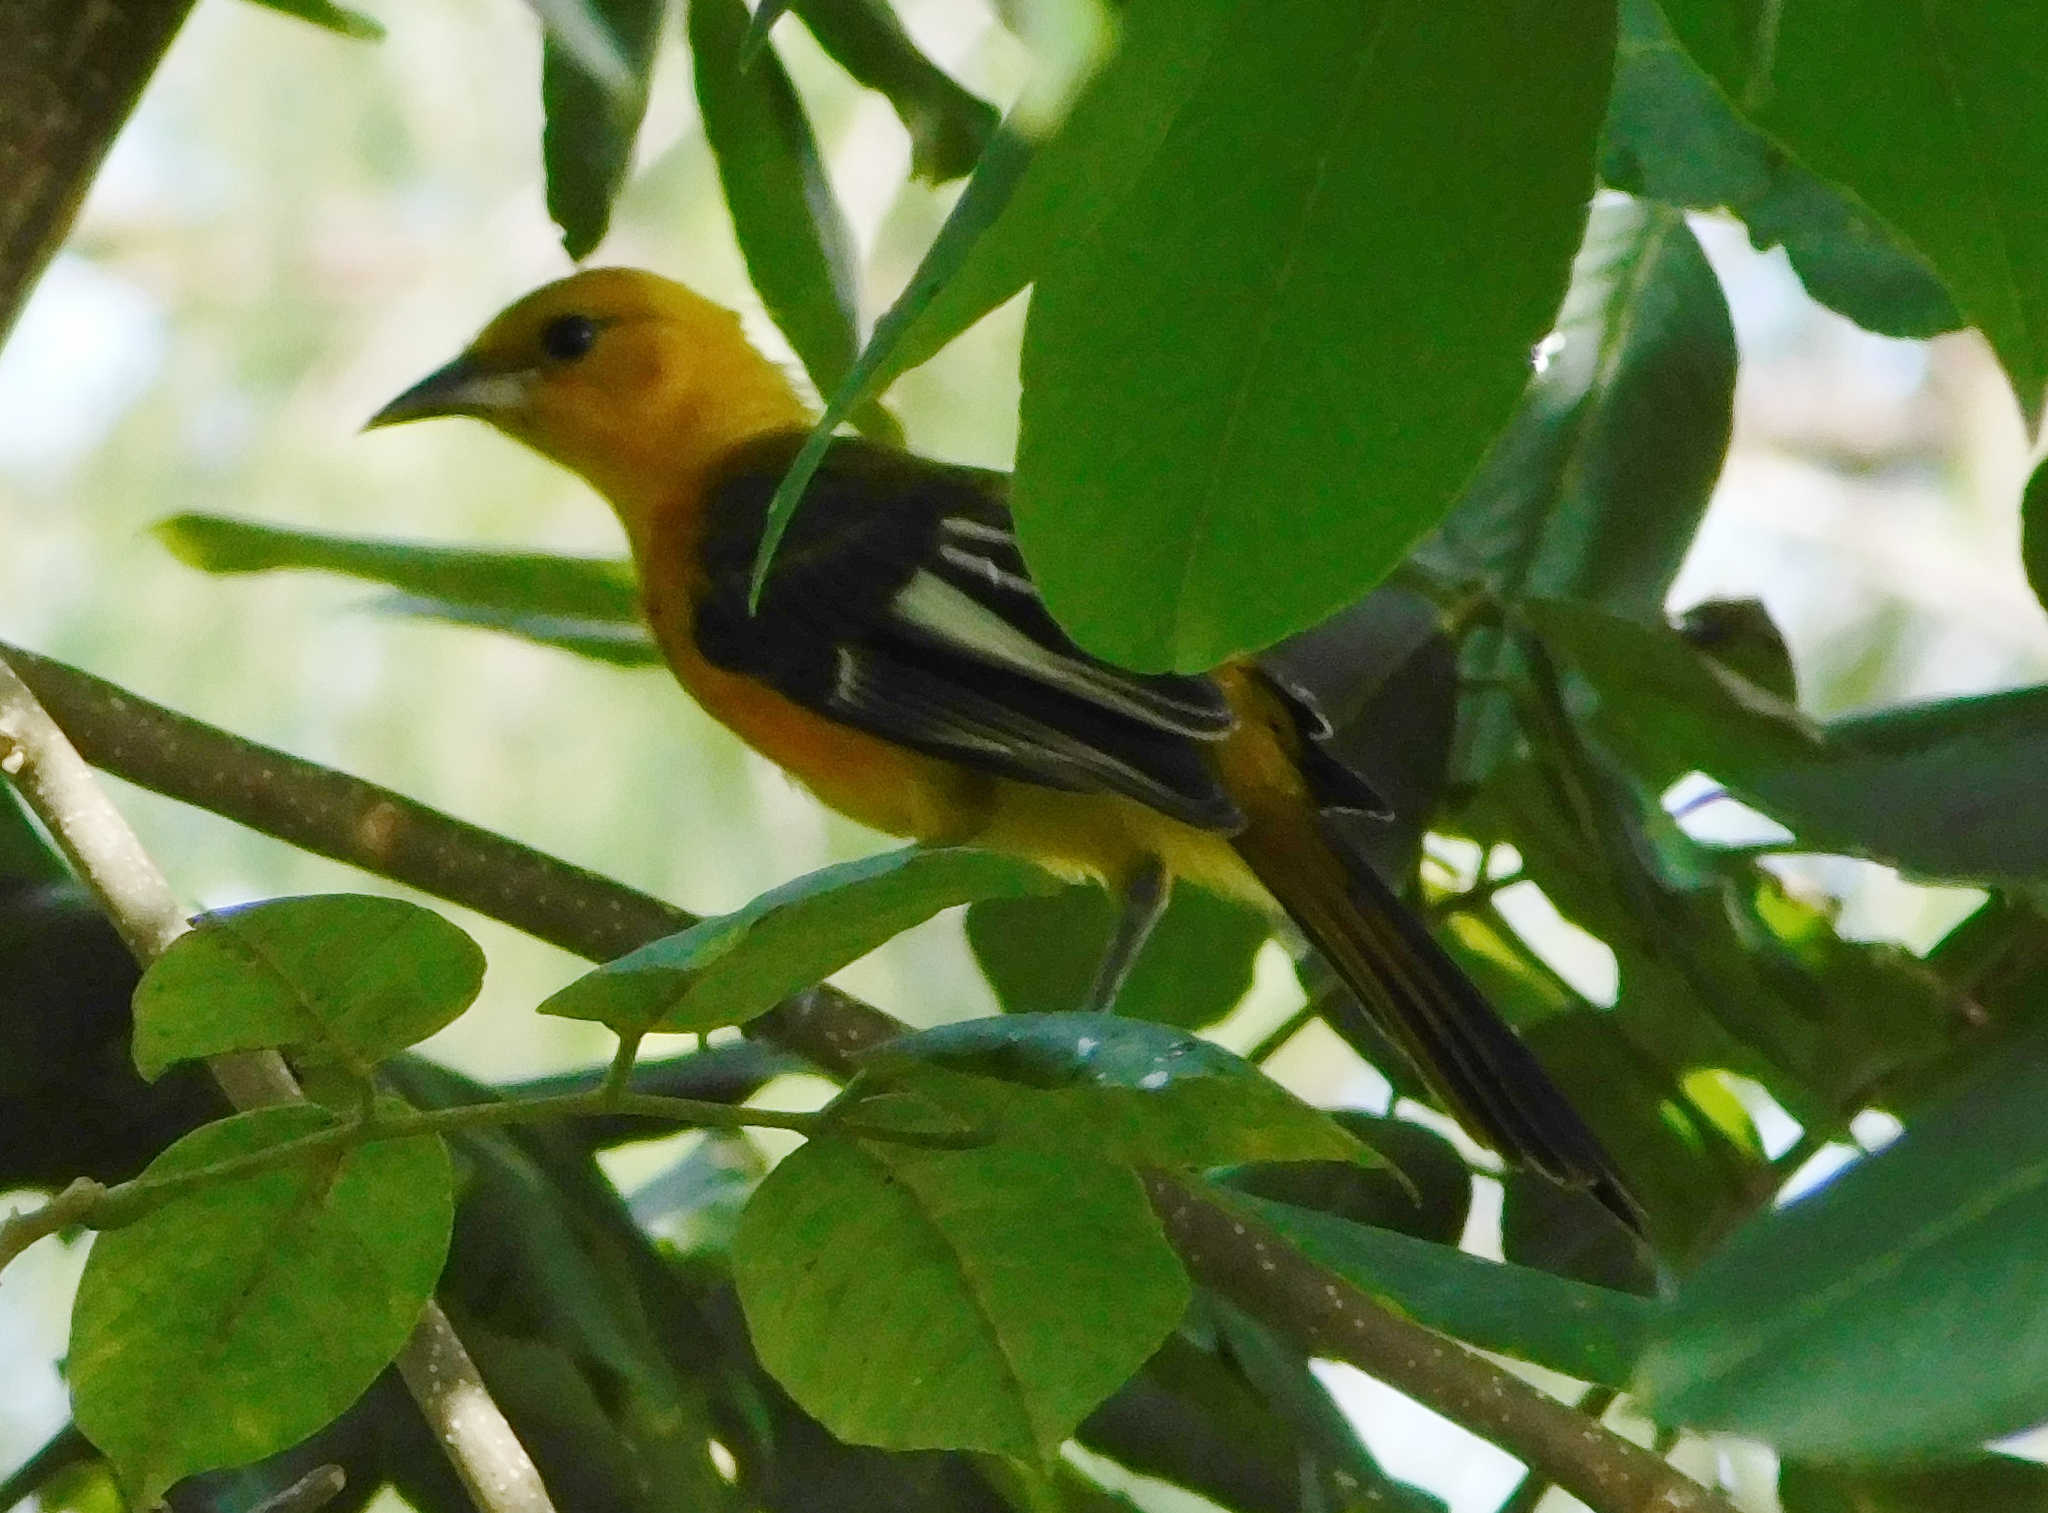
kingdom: Animalia
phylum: Chordata
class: Aves
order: Passeriformes
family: Icteridae
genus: Icterus
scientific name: Icterus pectoralis
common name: Spot-breasted oriole
